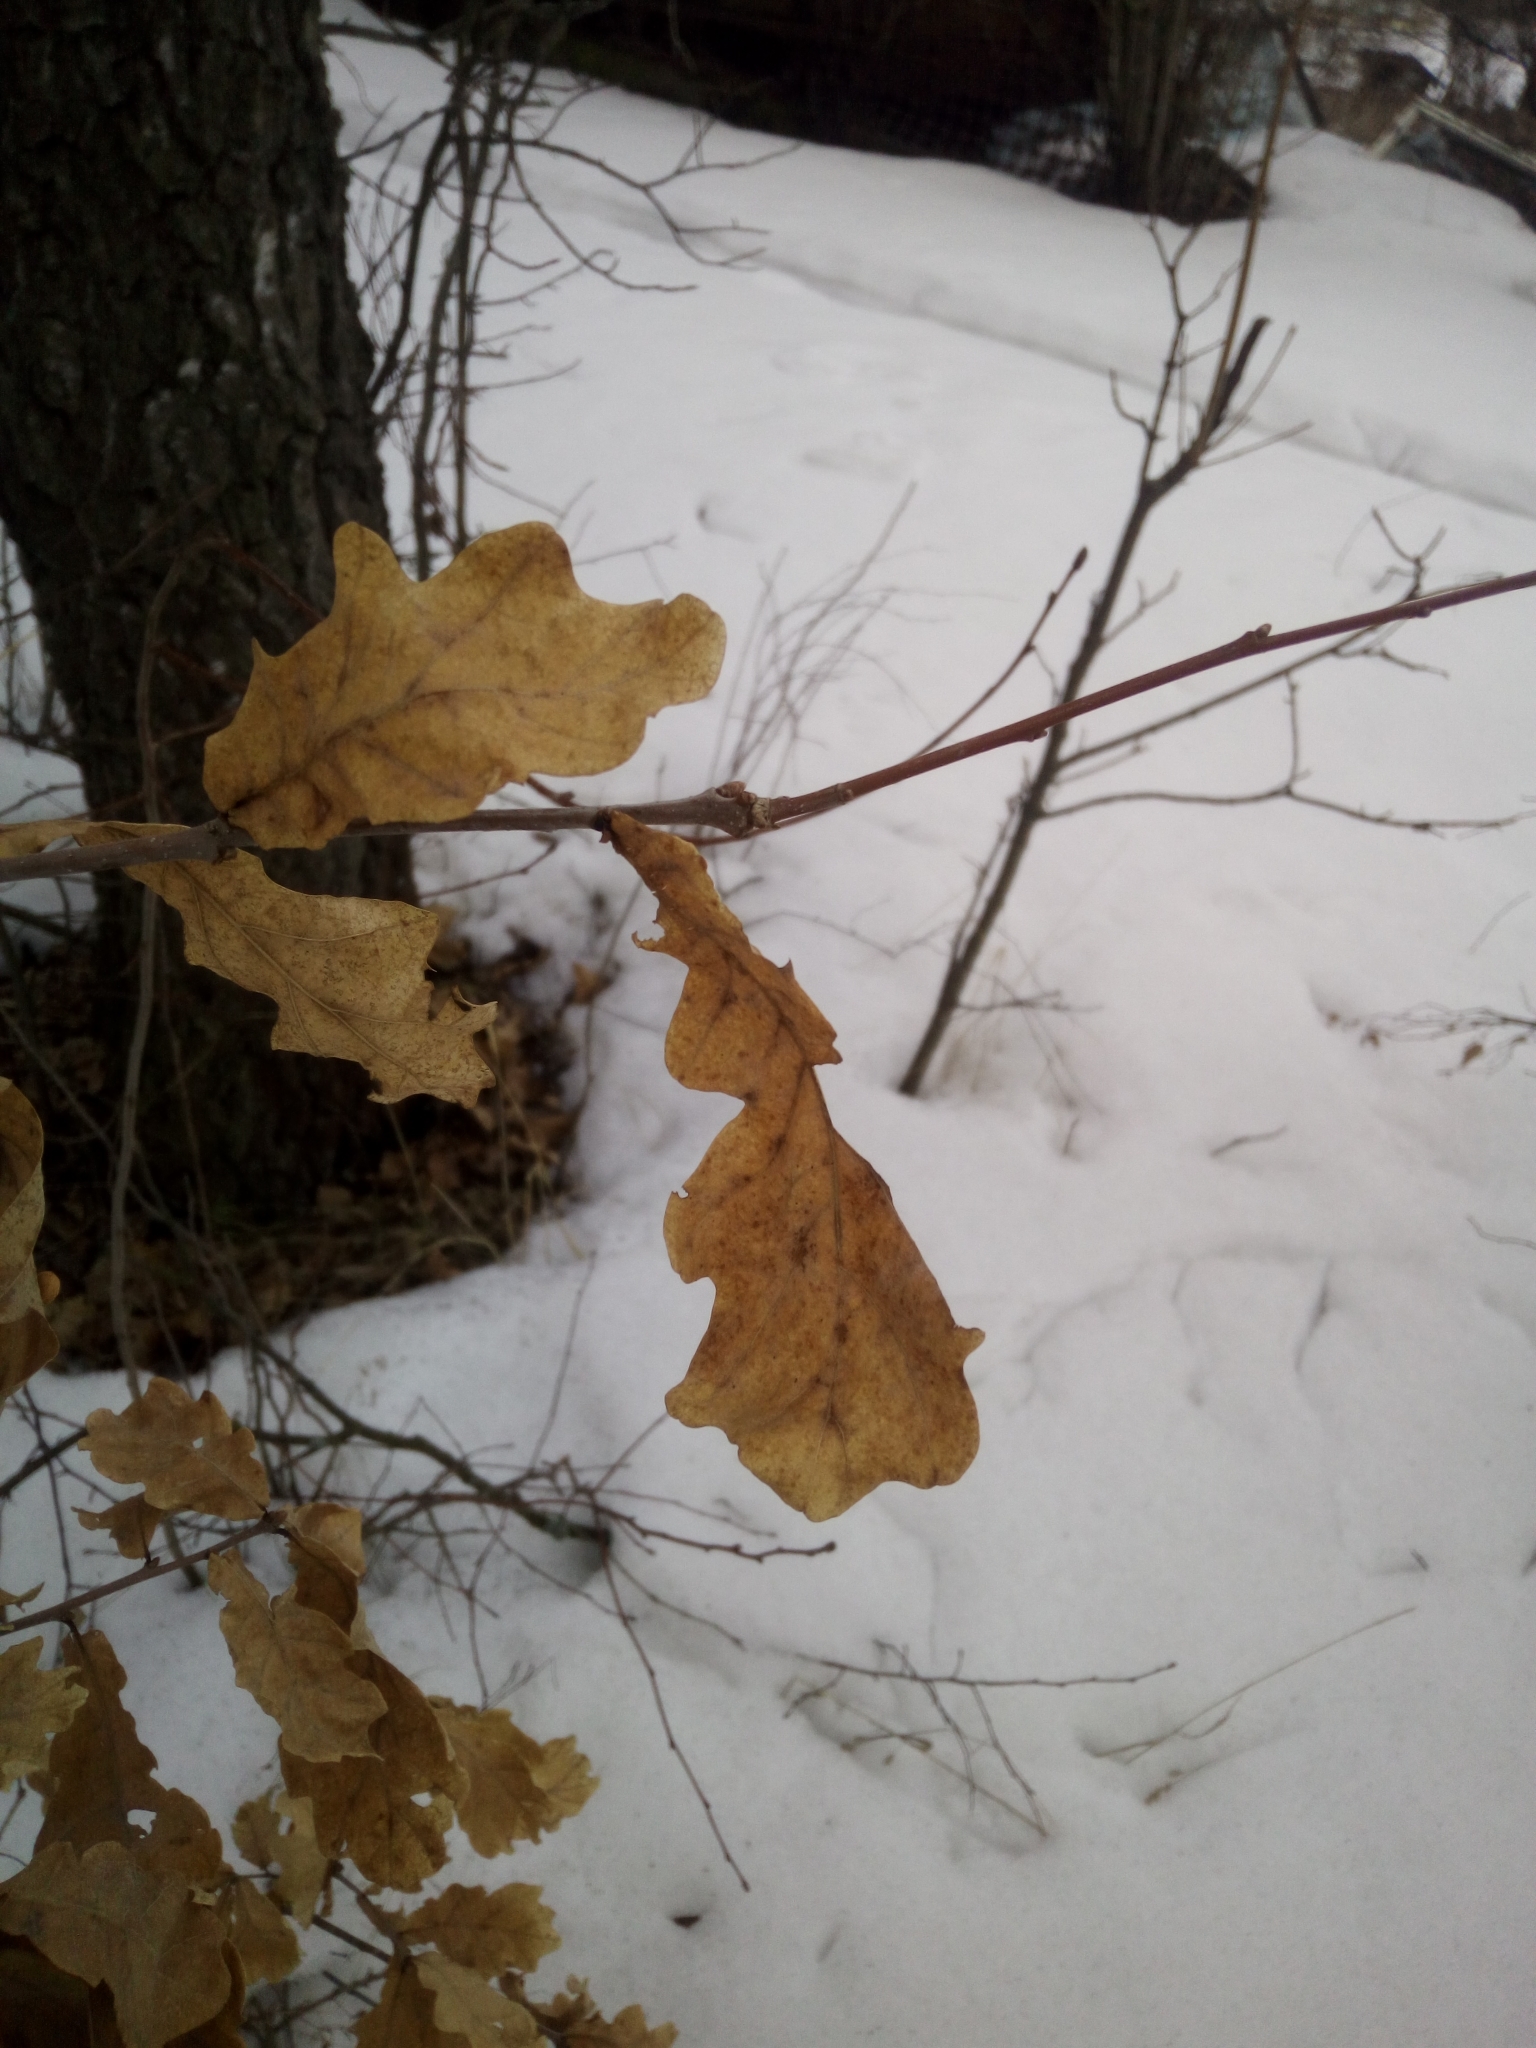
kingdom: Plantae
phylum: Tracheophyta
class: Magnoliopsida
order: Fagales
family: Fagaceae
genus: Quercus
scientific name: Quercus robur
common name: Pedunculate oak
